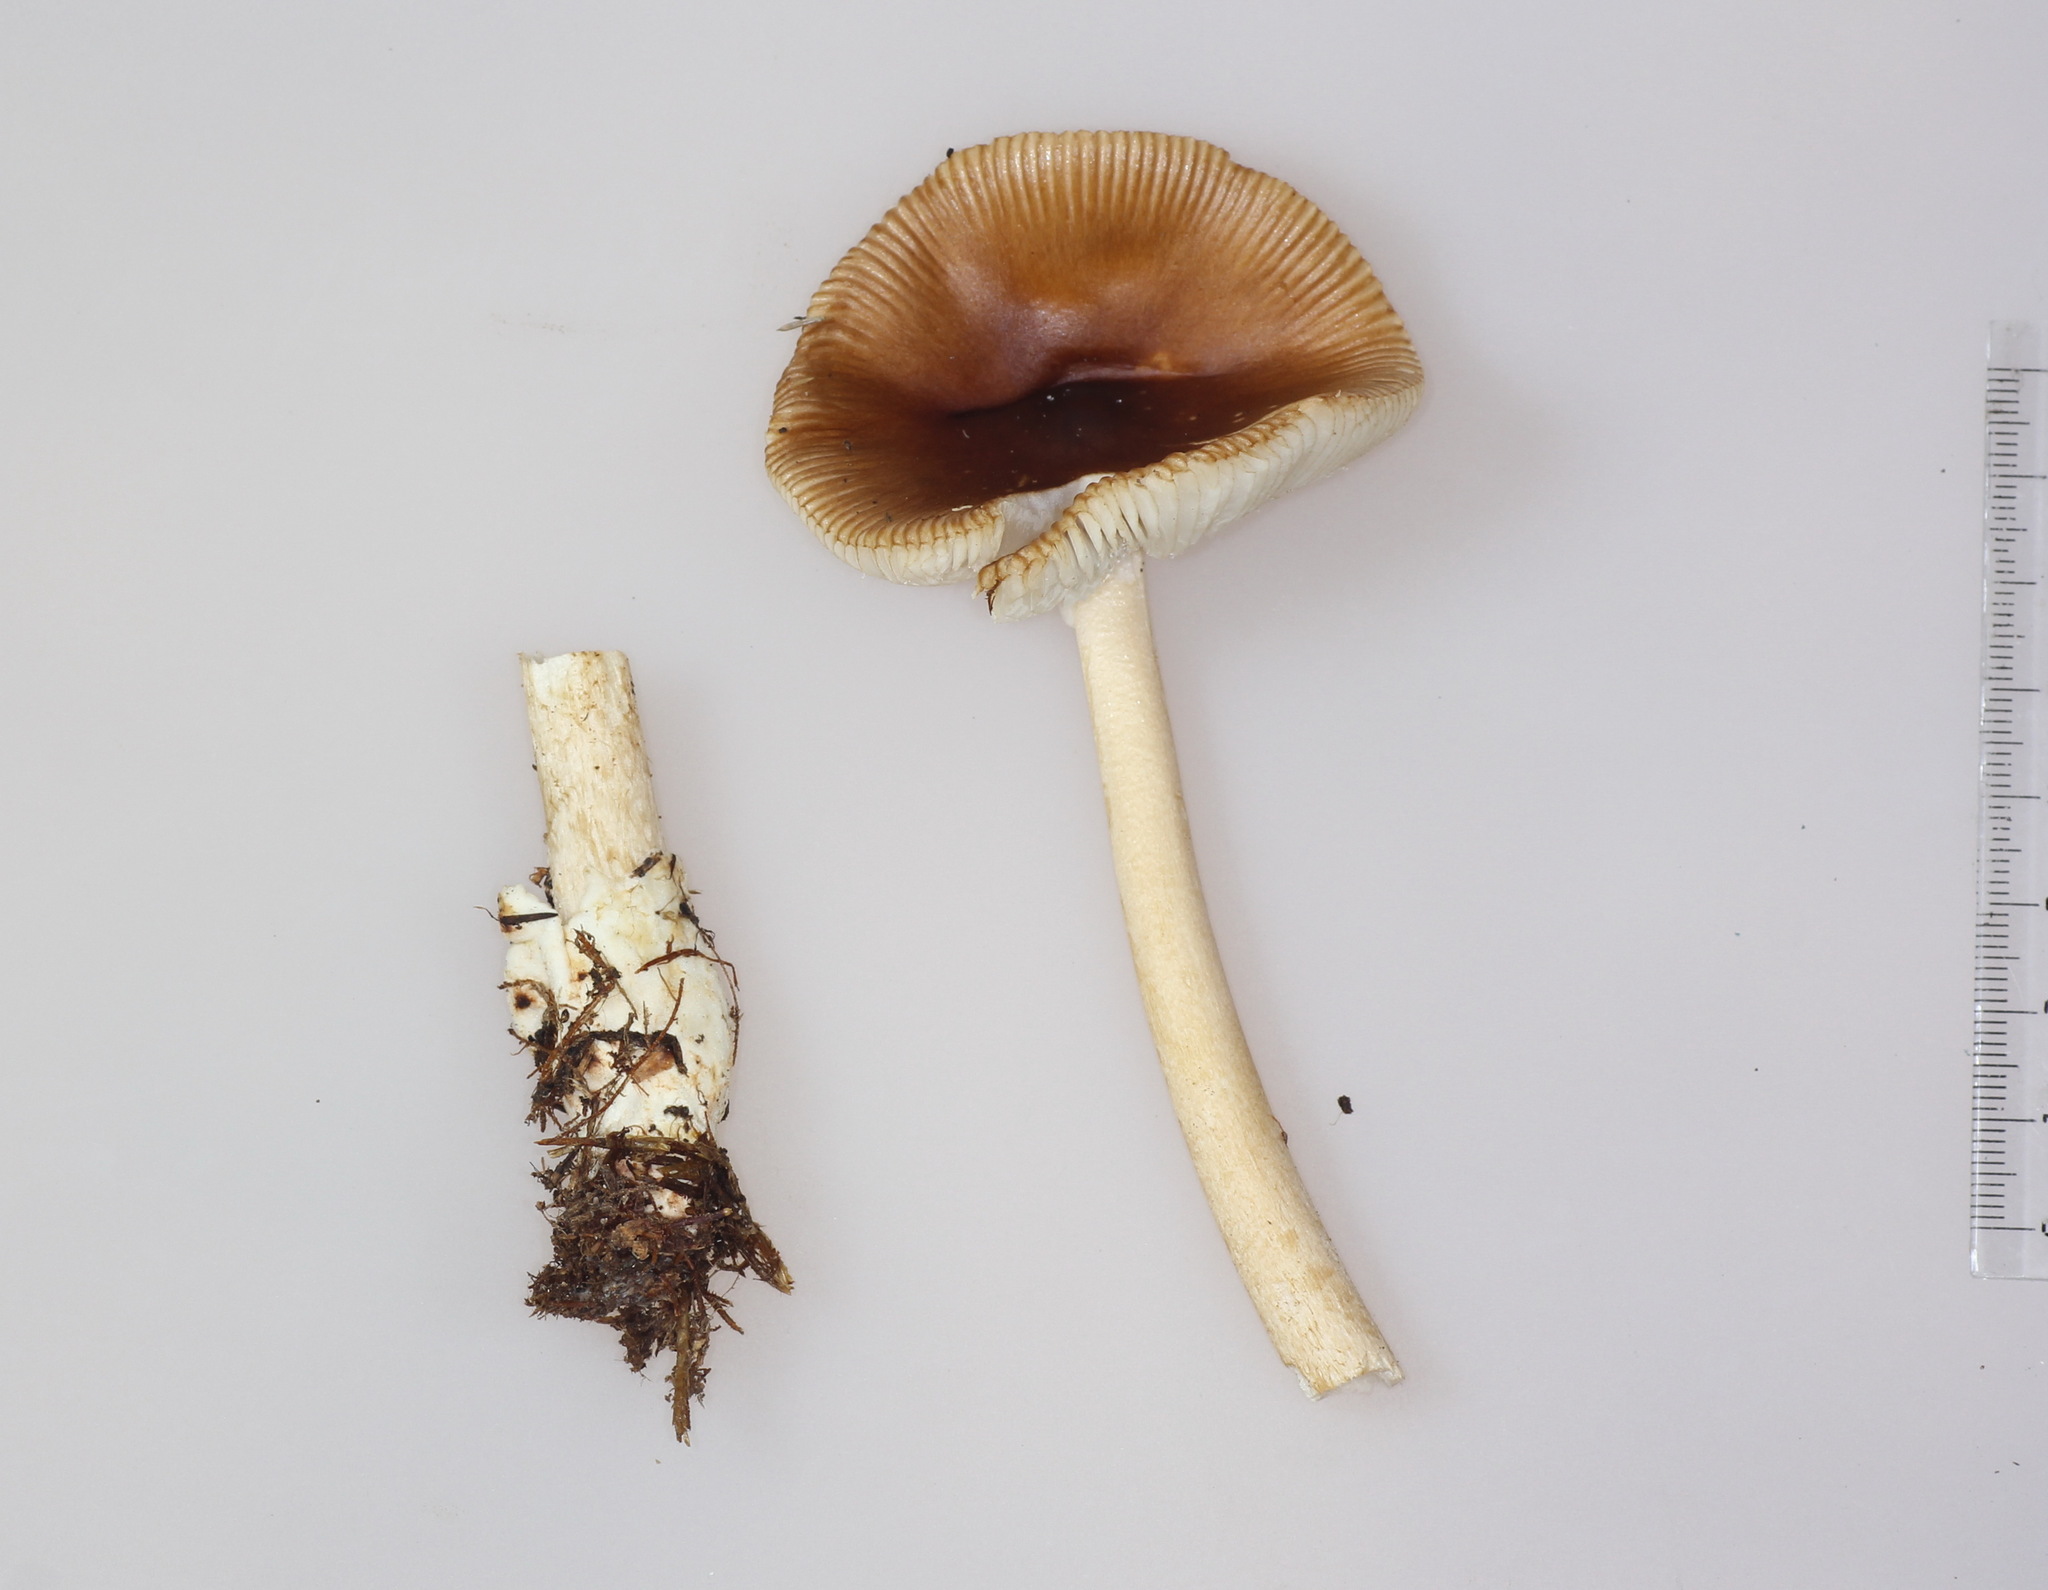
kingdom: Fungi
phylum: Basidiomycota
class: Agaricomycetes
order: Agaricales
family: Amanitaceae
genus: Amanita
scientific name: Amanita fulva
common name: Tawny grisette
